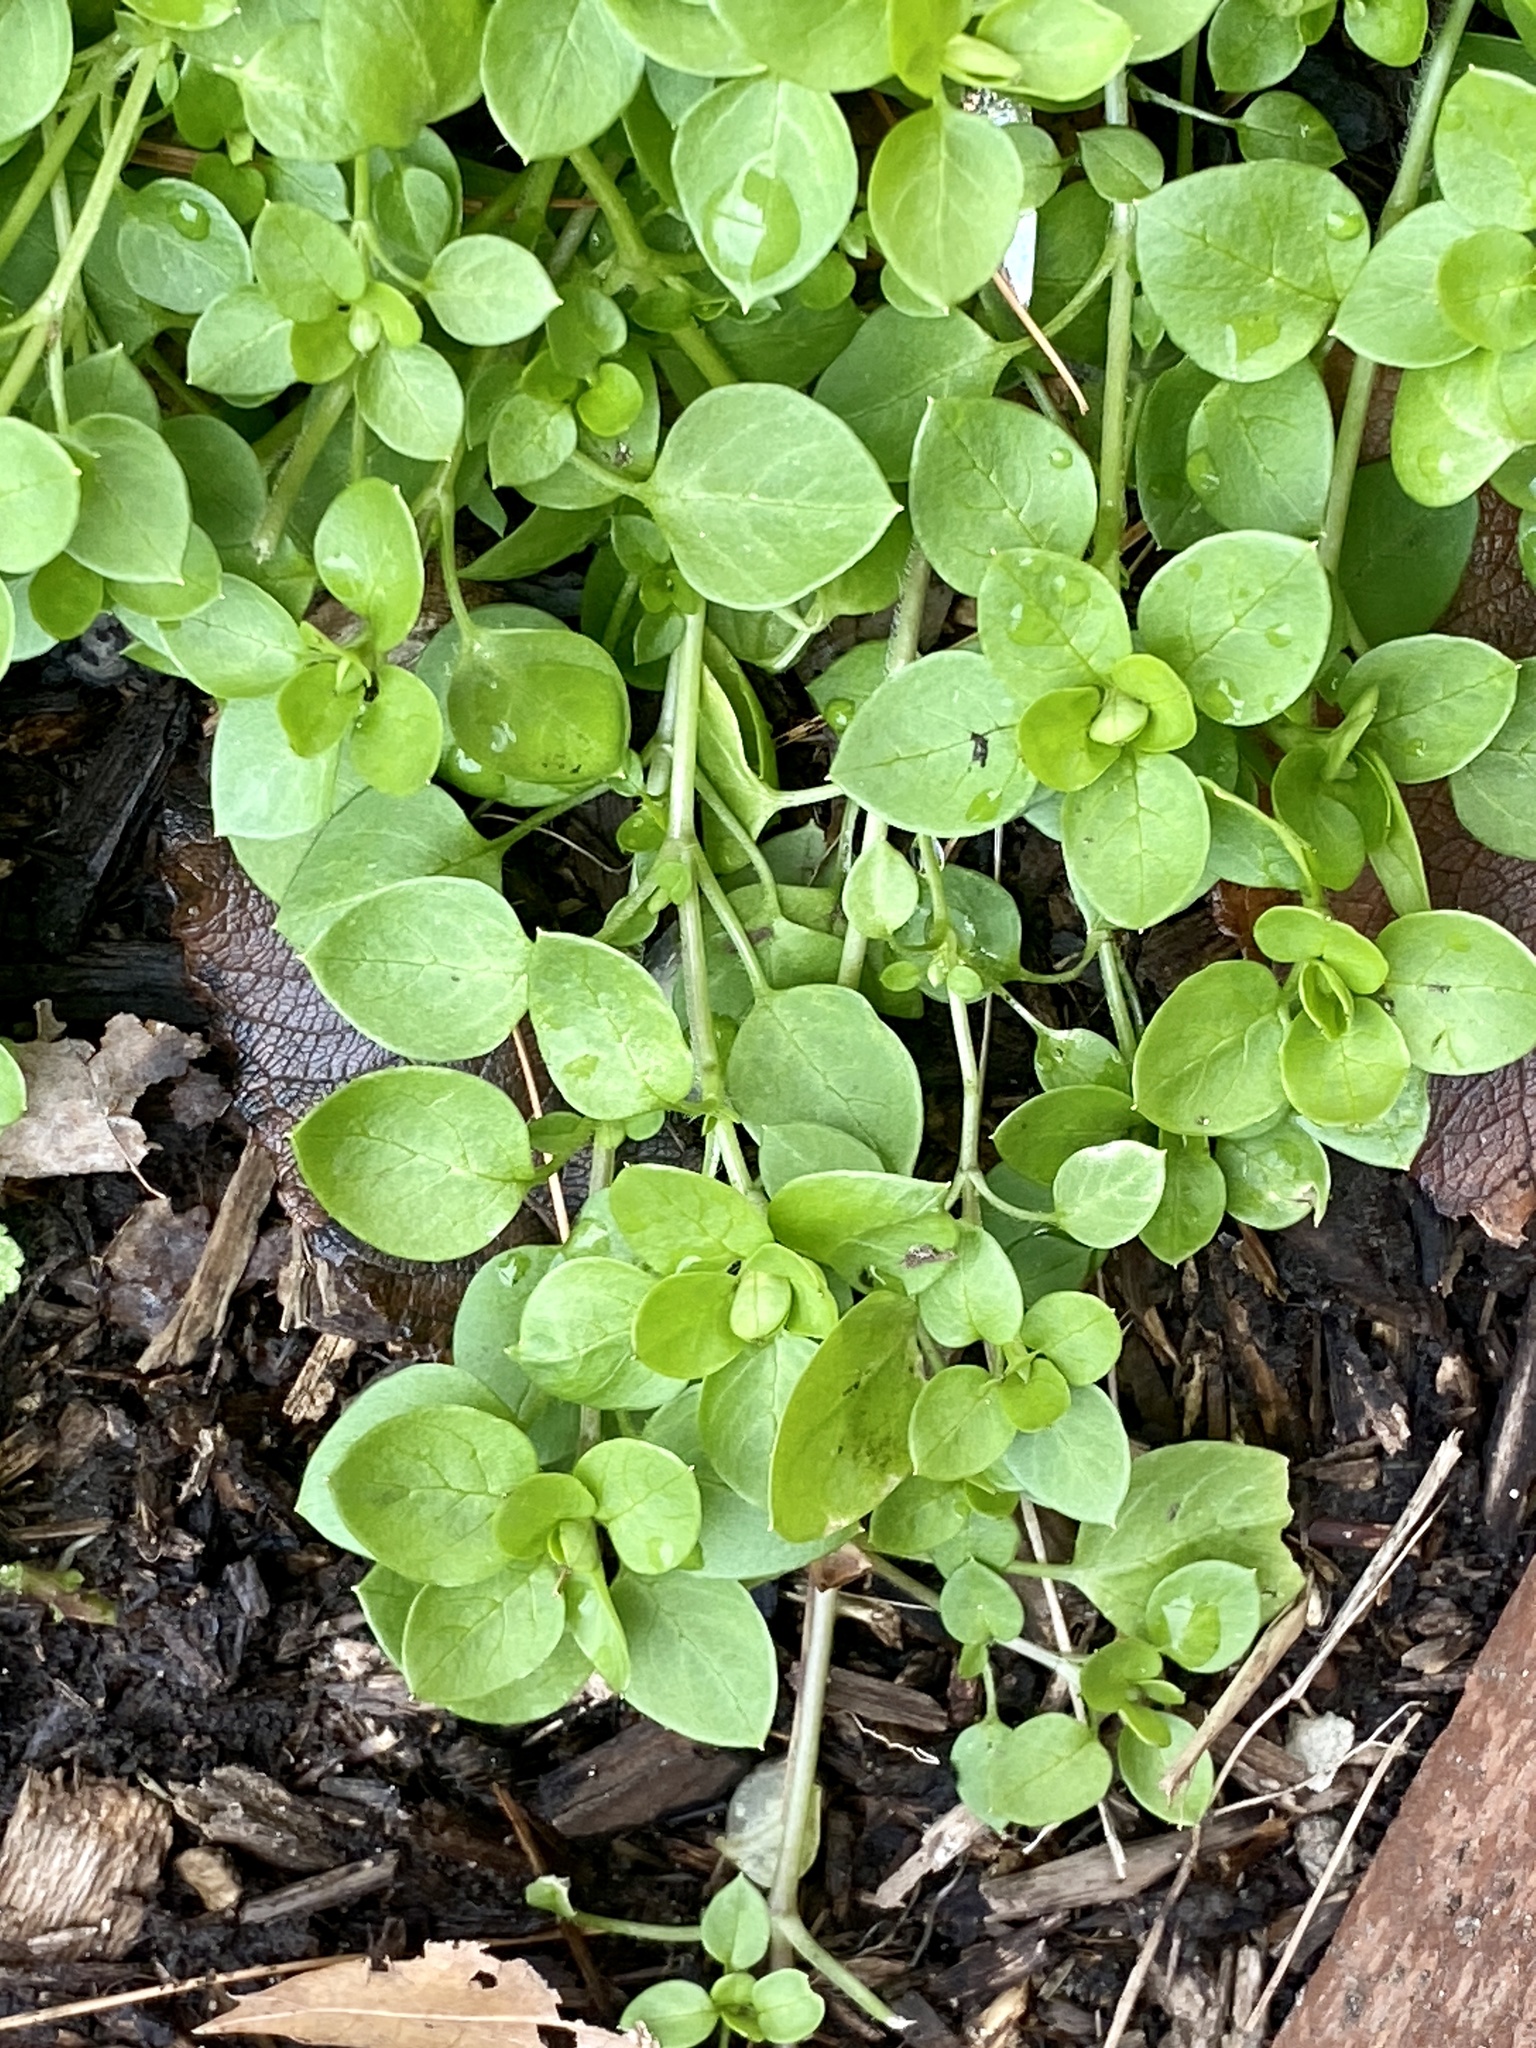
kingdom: Plantae
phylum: Tracheophyta
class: Magnoliopsida
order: Caryophyllales
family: Caryophyllaceae
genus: Stellaria
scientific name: Stellaria media
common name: Common chickweed
